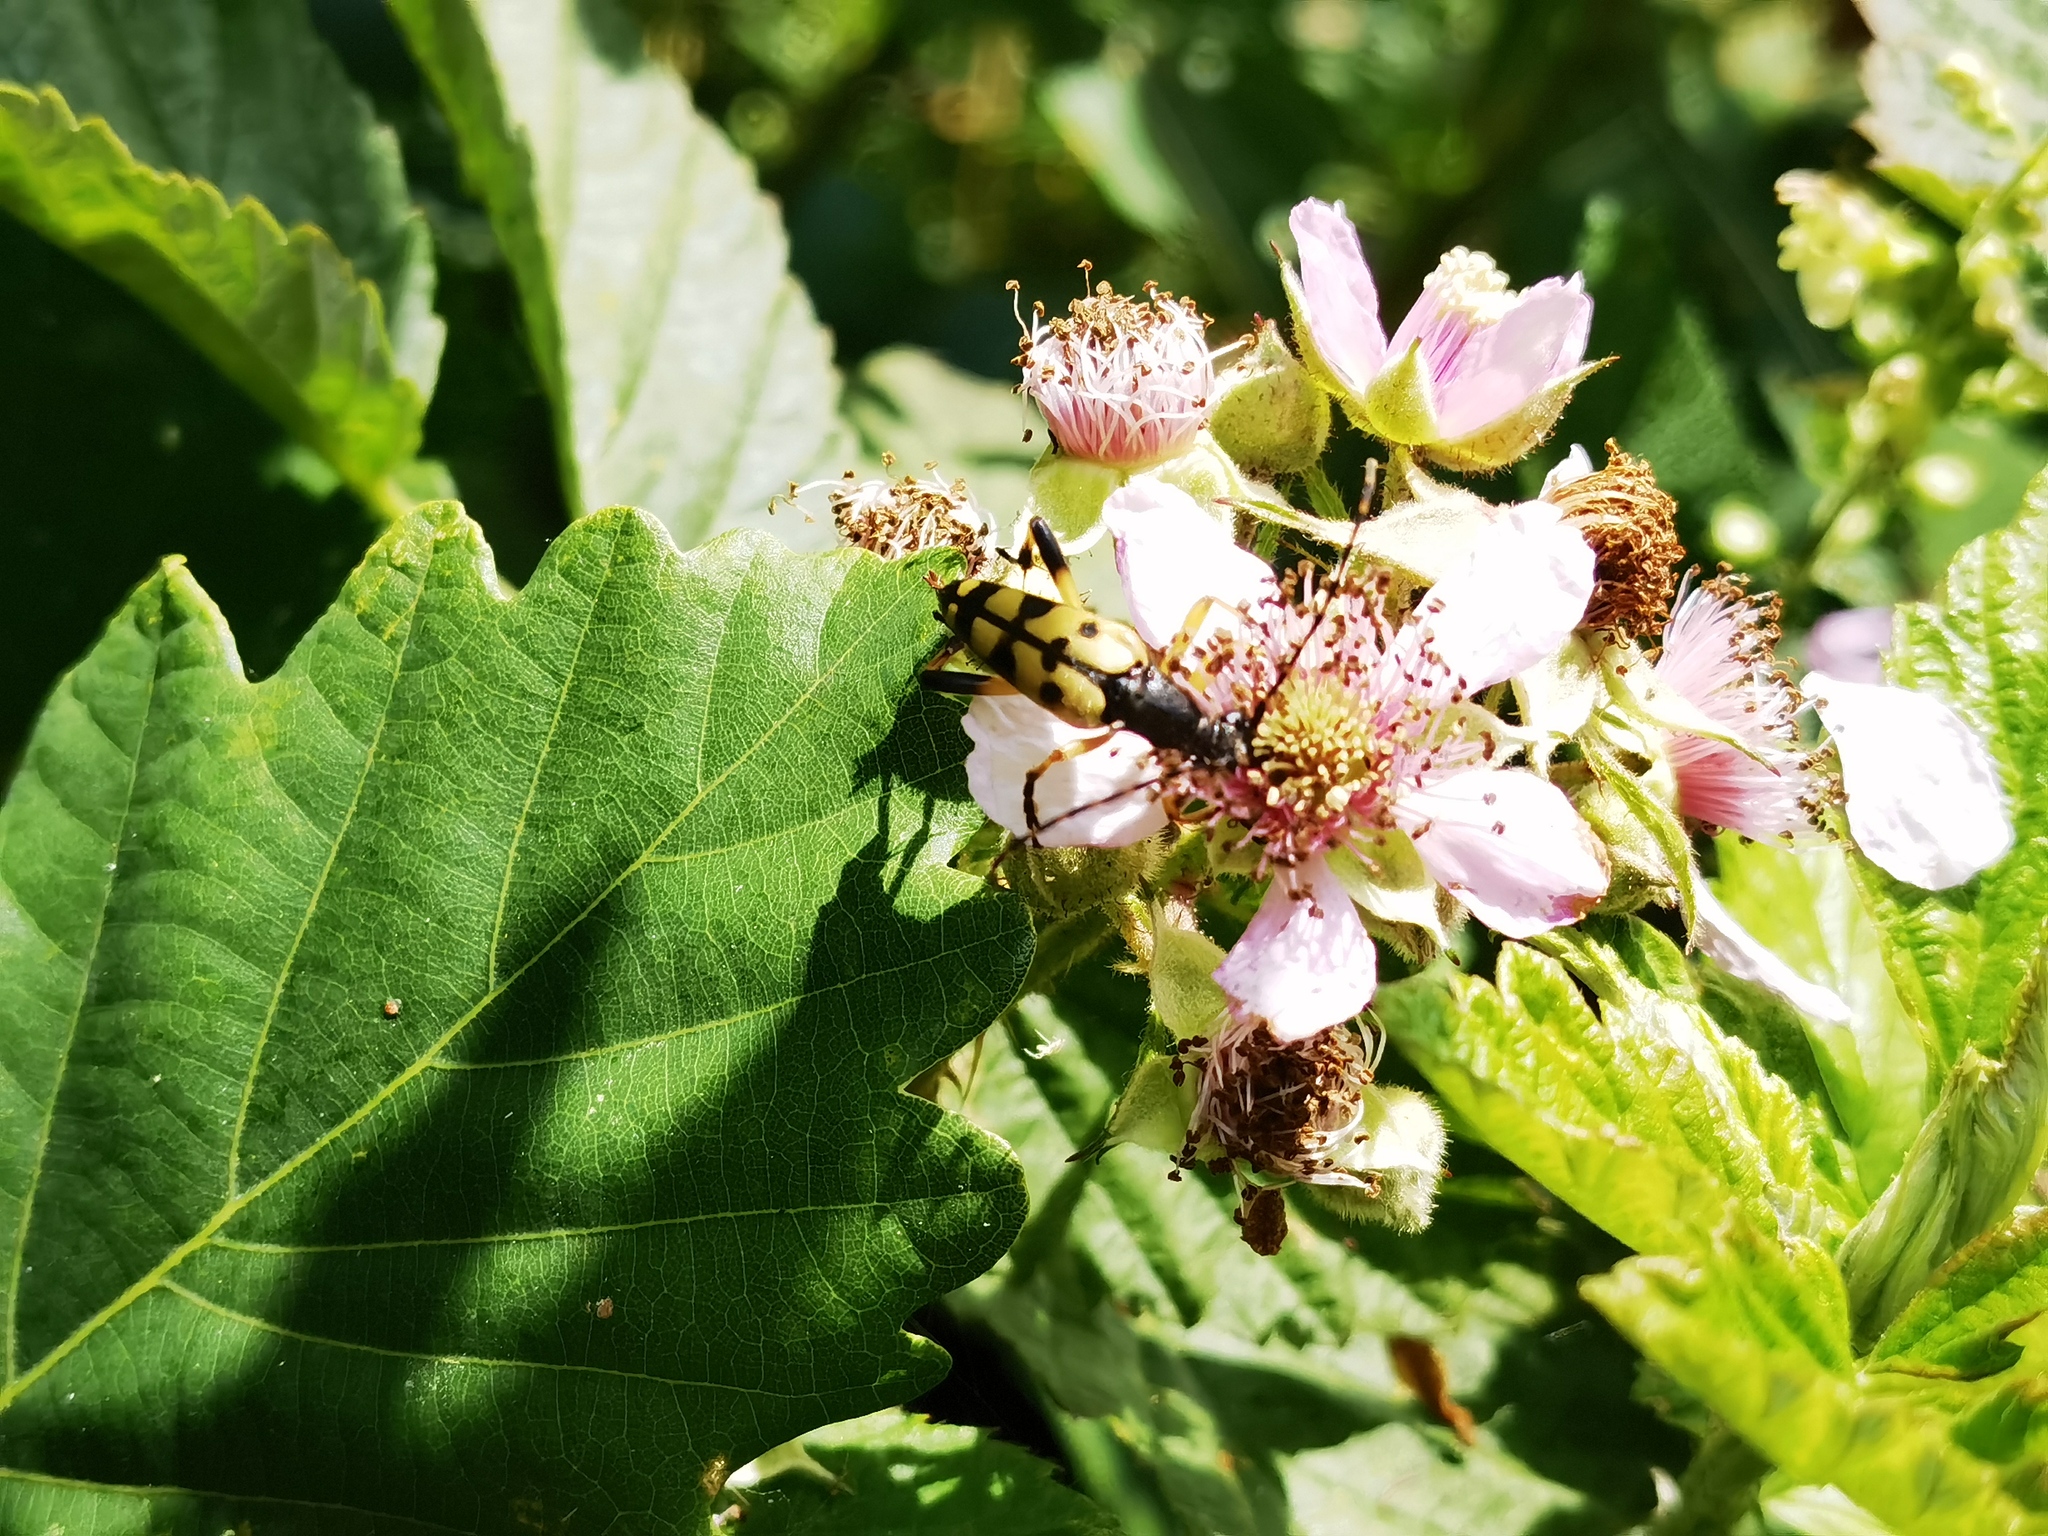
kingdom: Animalia
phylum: Arthropoda
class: Insecta
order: Coleoptera
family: Cerambycidae
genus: Rutpela
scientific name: Rutpela maculata
